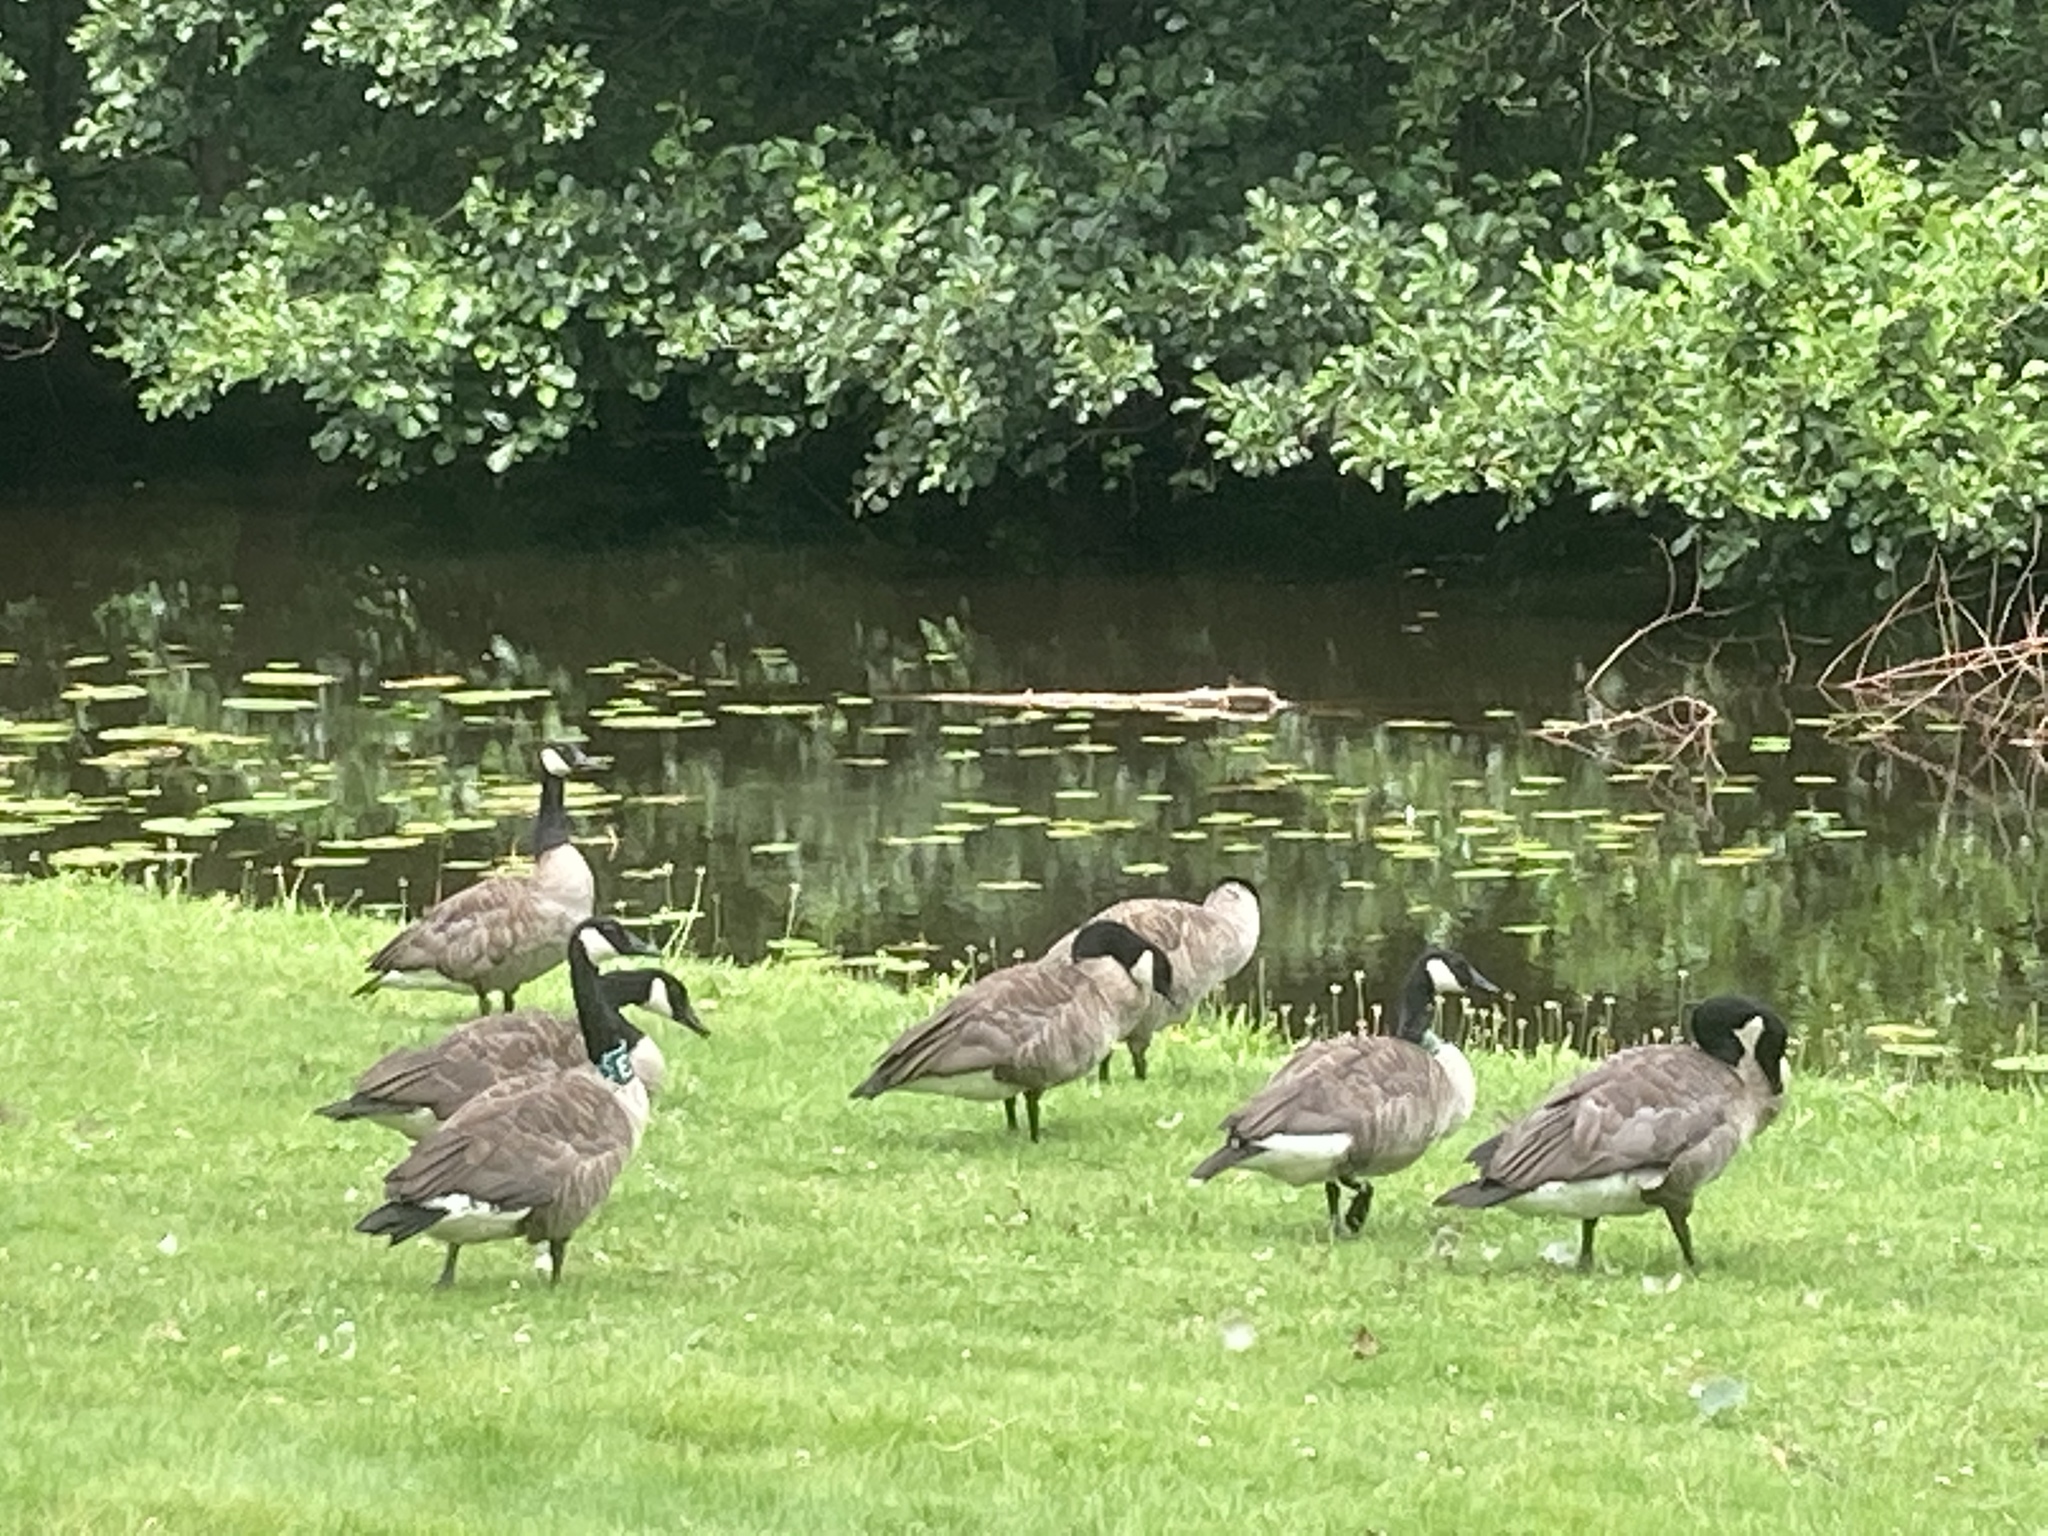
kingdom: Animalia
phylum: Chordata
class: Aves
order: Anseriformes
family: Anatidae
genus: Branta
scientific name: Branta canadensis
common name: Canada goose
